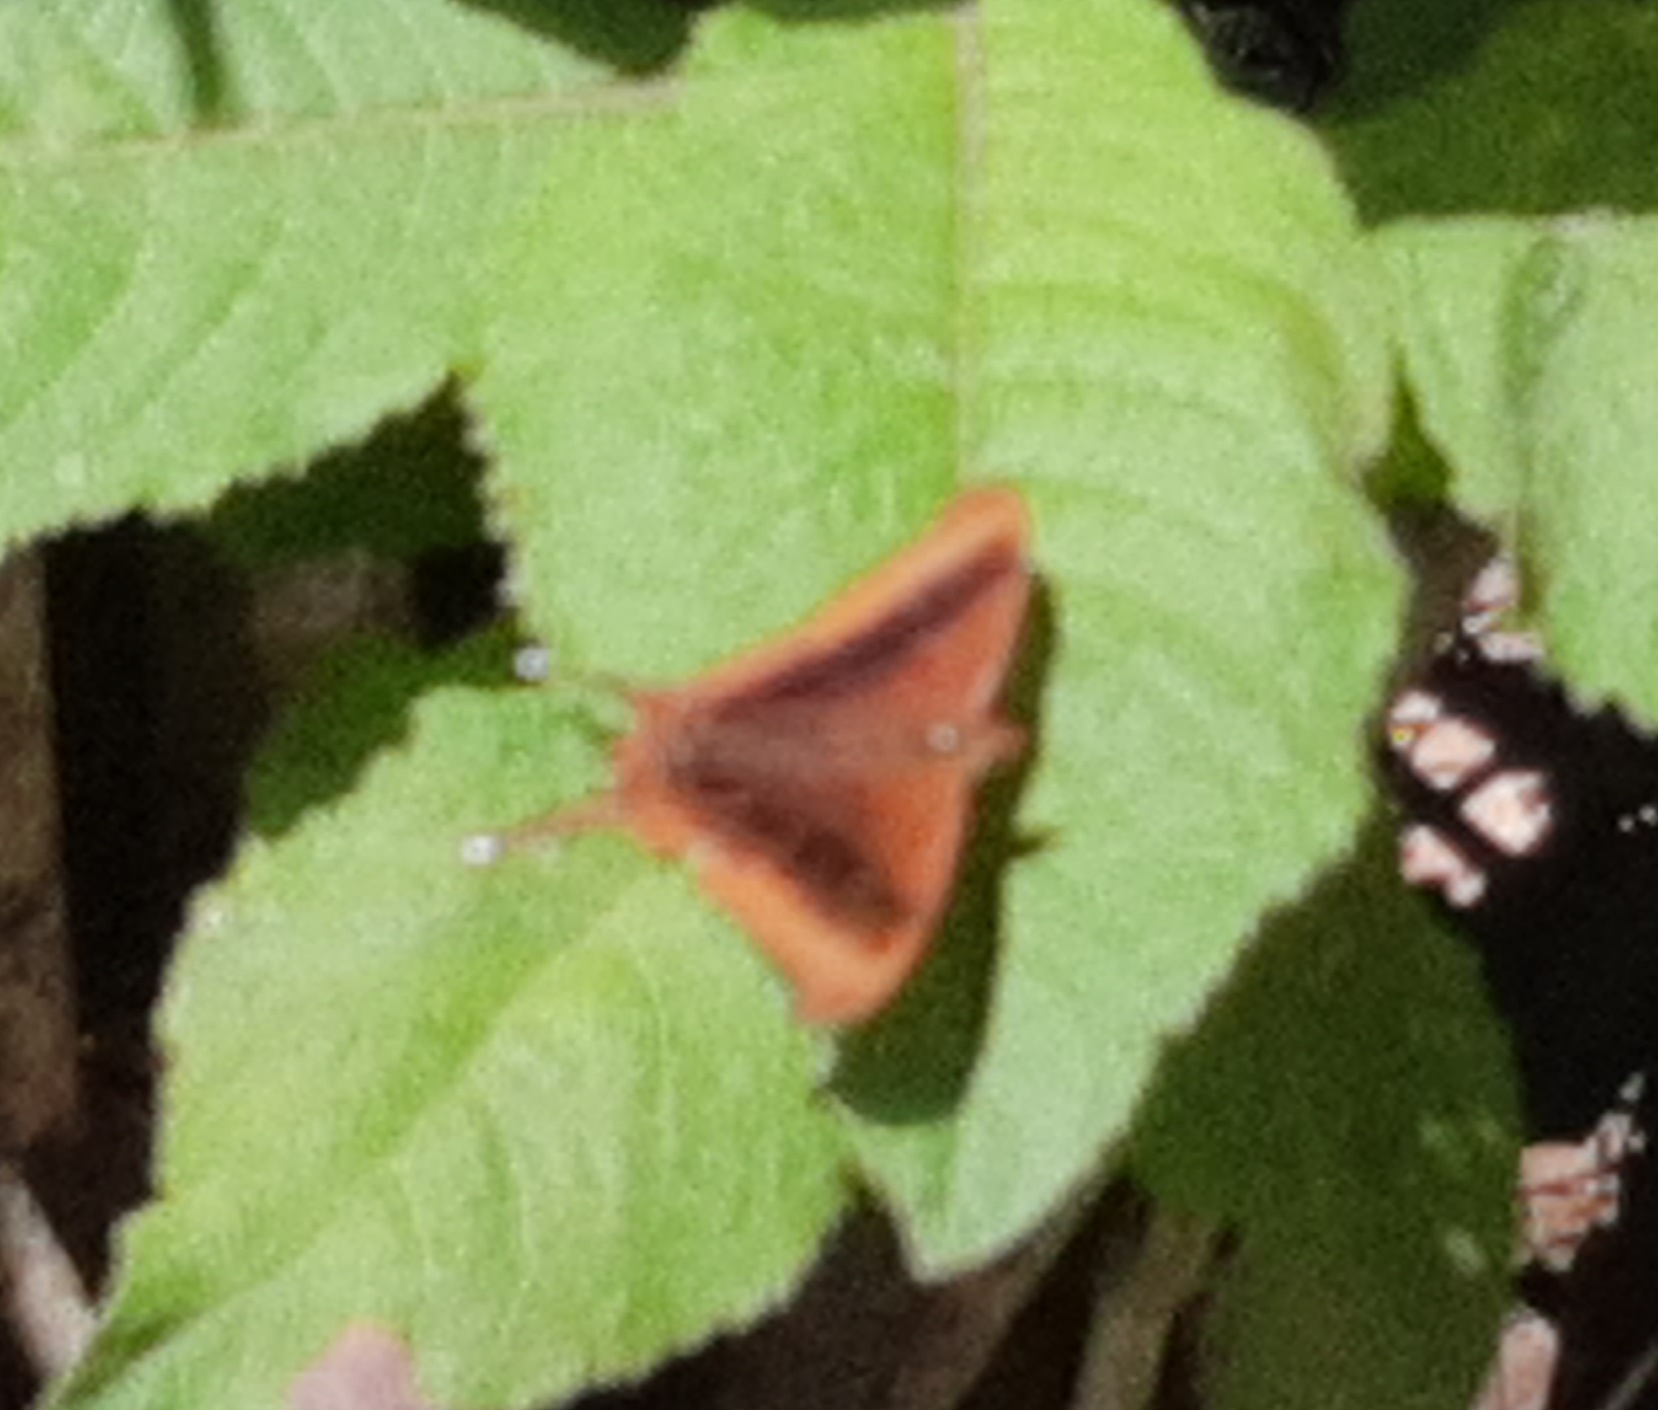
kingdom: Animalia
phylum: Arthropoda
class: Insecta
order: Lepidoptera
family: Nymphalidae
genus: Marpesia
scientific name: Marpesia zerynthia
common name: Waiter daggerwing
